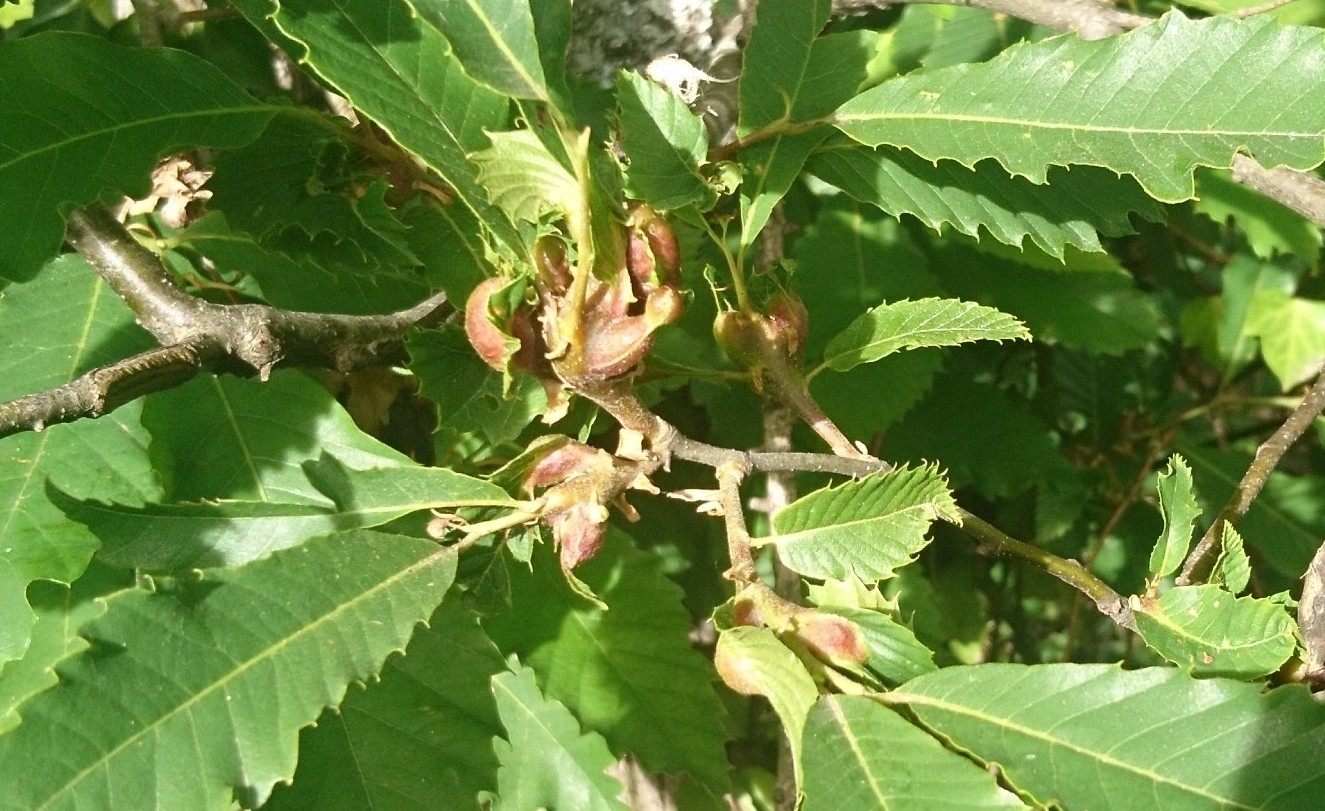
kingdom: Animalia
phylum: Arthropoda
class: Insecta
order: Hymenoptera
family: Cynipidae
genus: Dryocosmus
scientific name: Dryocosmus kuriphilus
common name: Asian chestnut gall wasp
